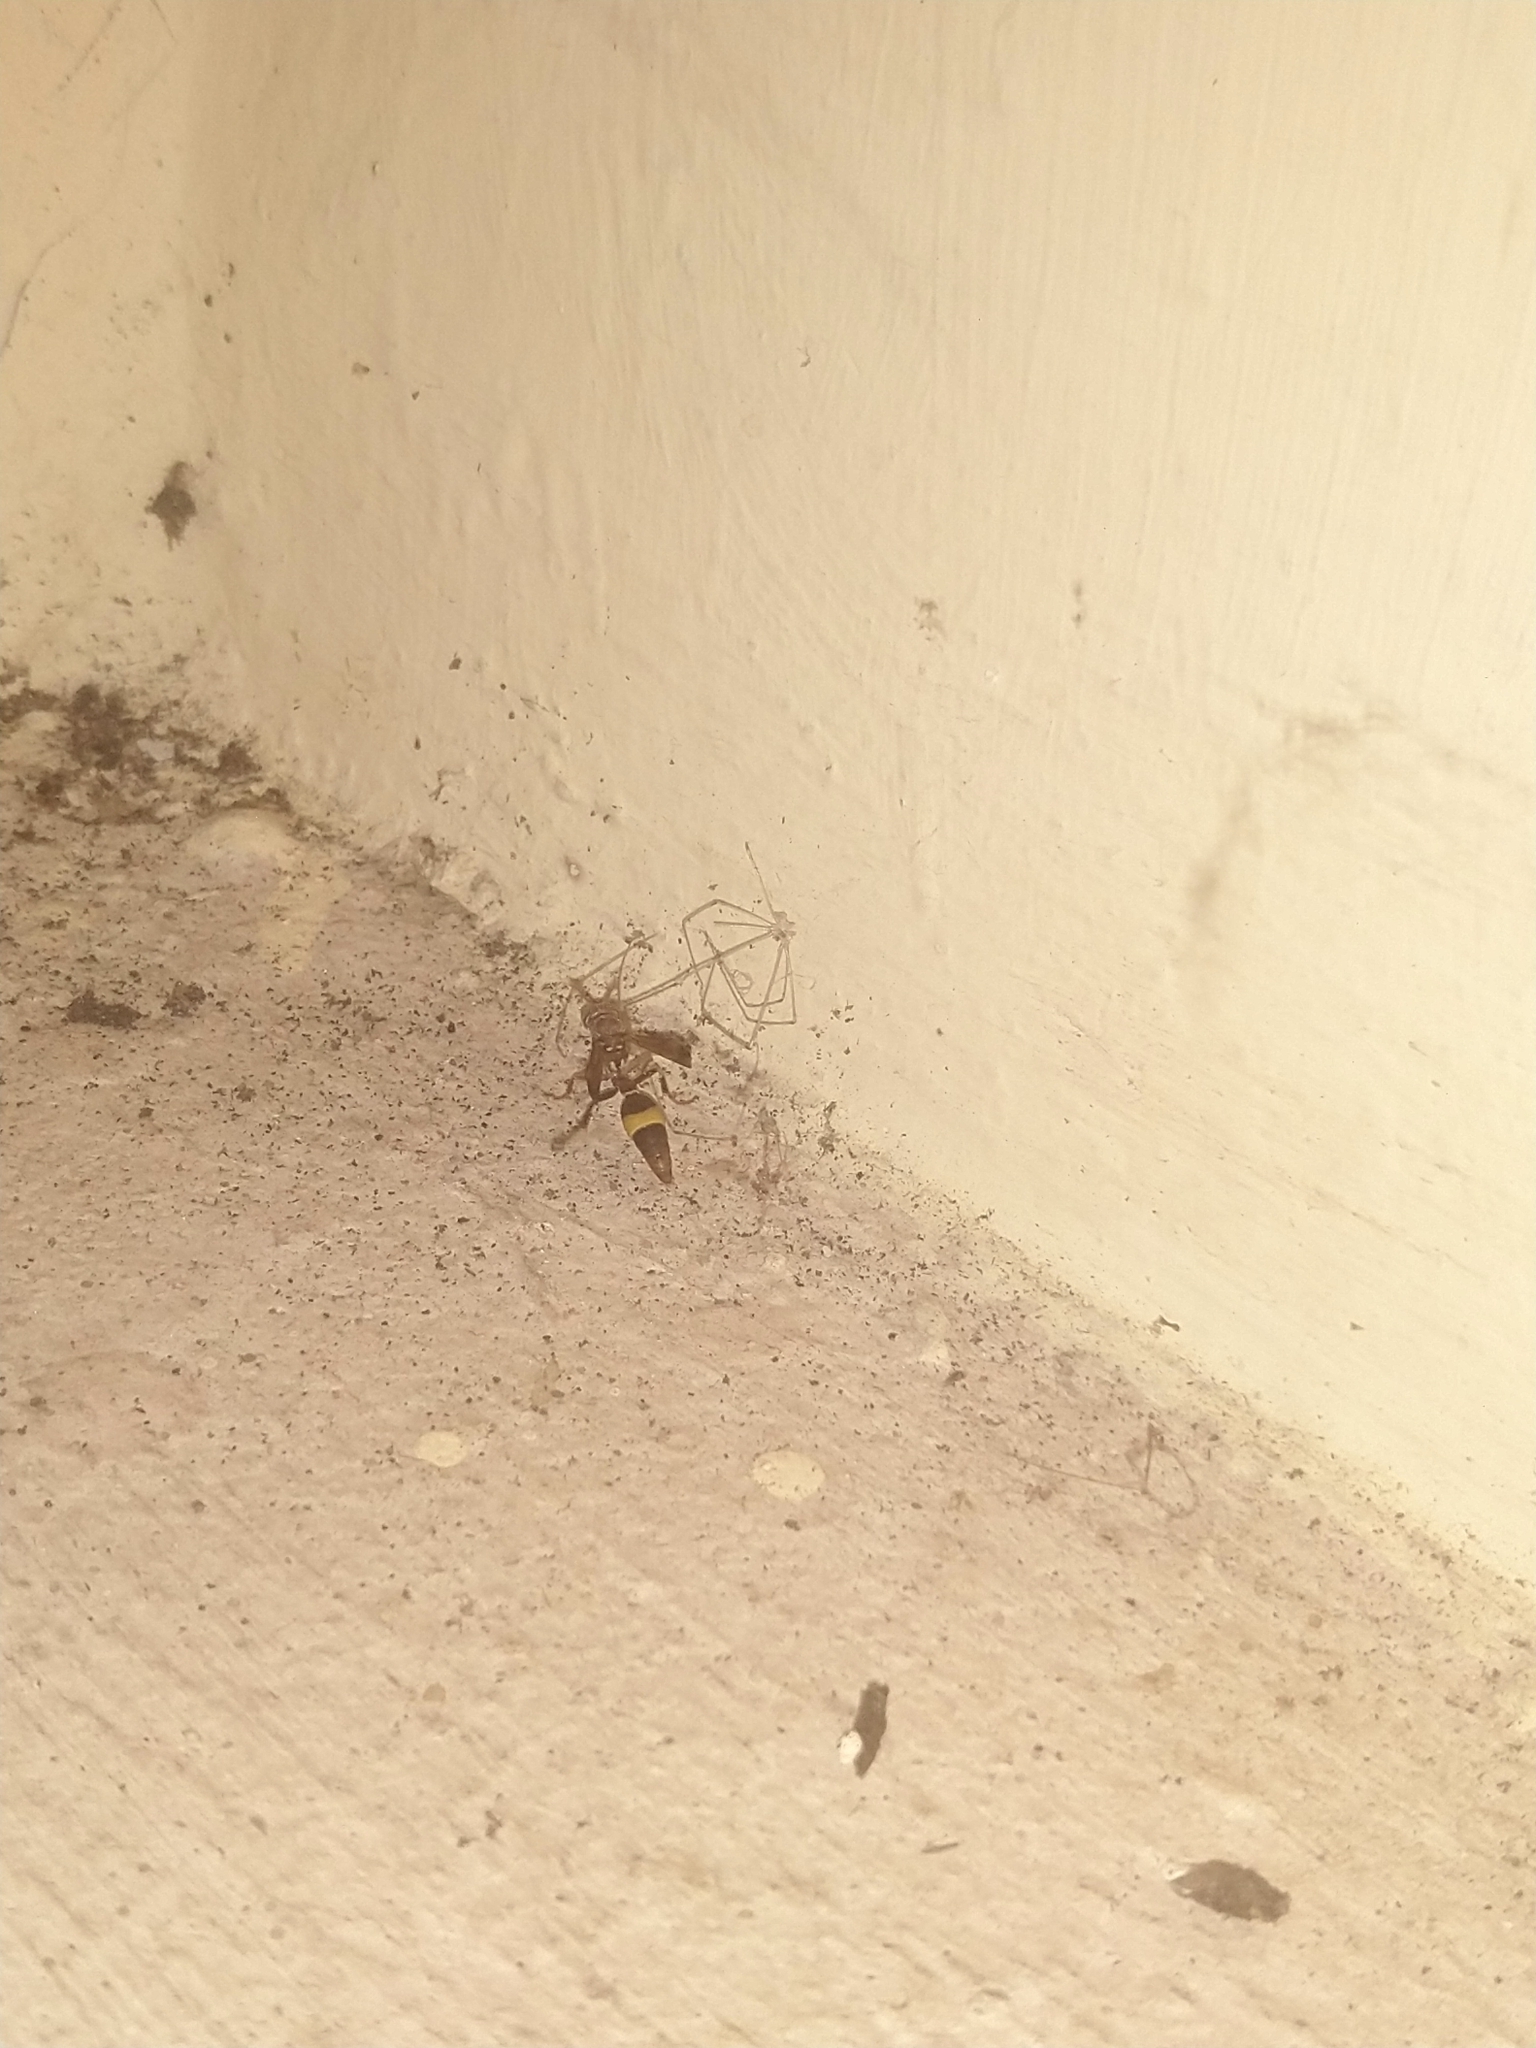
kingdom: Animalia
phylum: Arthropoda
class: Insecta
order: Hymenoptera
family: Vespidae
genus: Ropalidia
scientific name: Ropalidia
